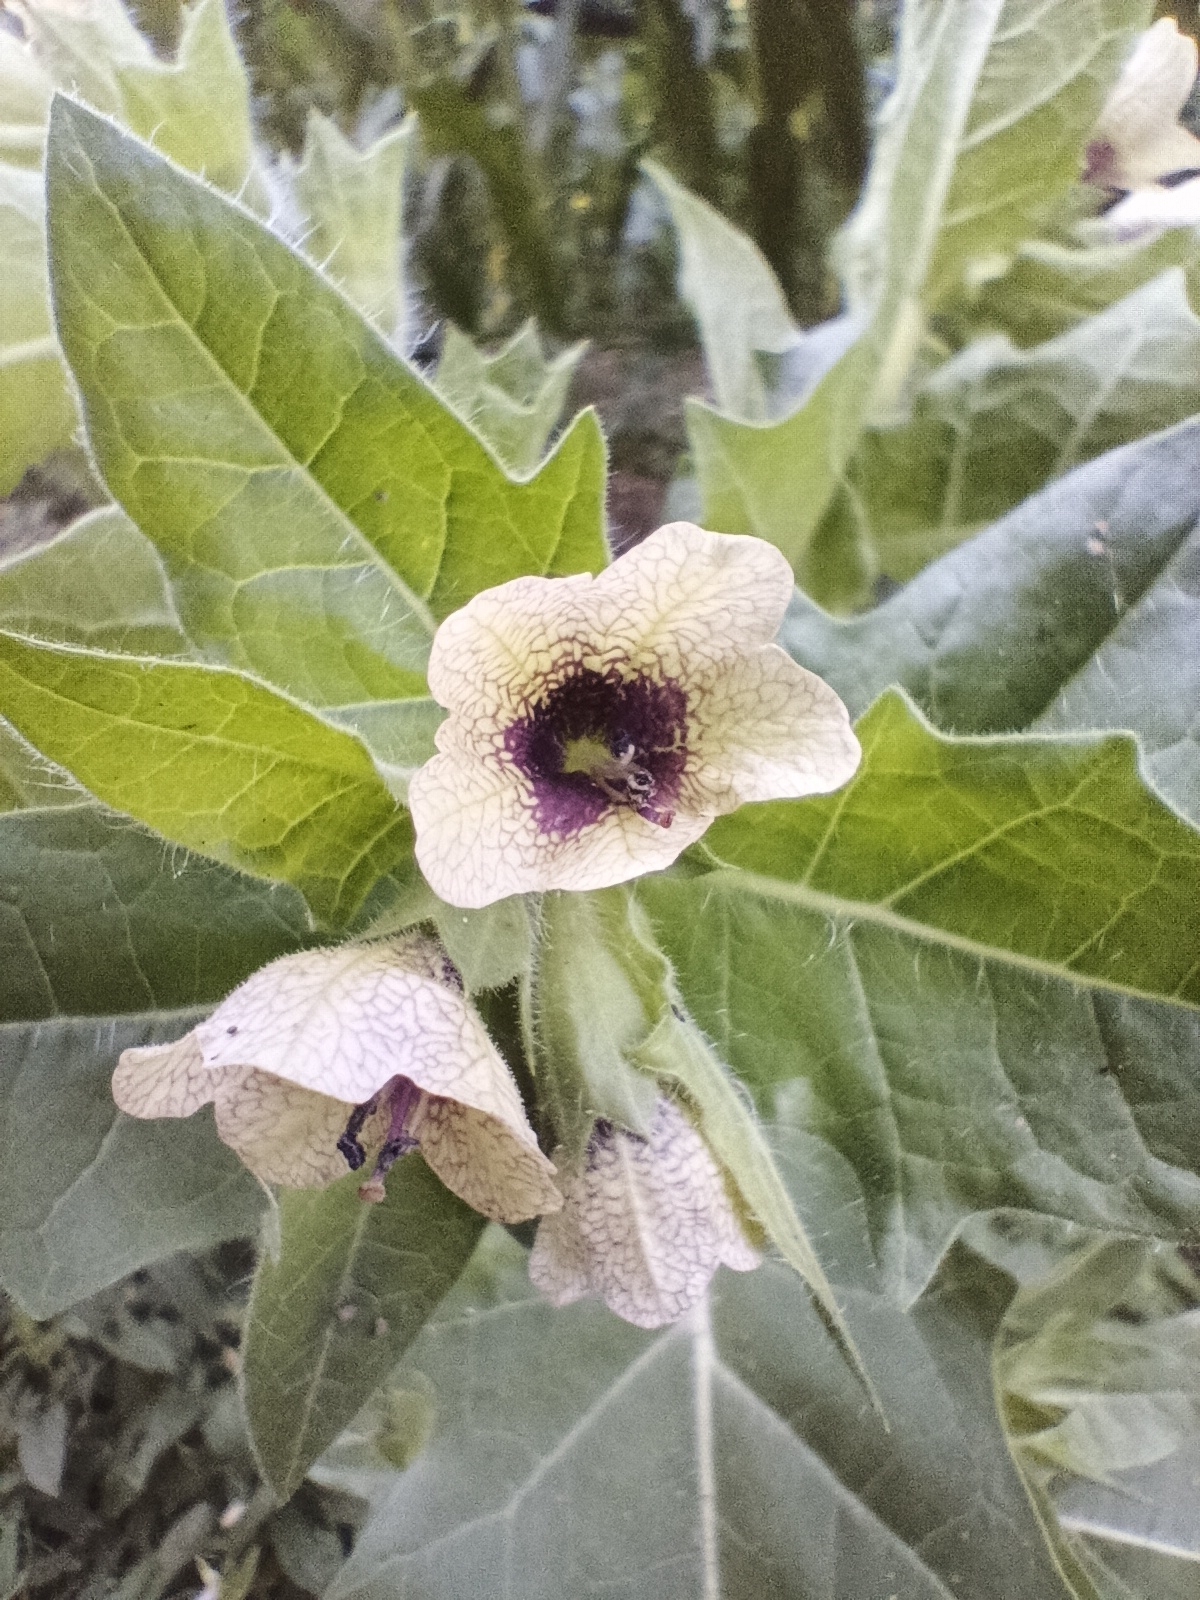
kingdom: Plantae
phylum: Tracheophyta
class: Magnoliopsida
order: Solanales
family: Solanaceae
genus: Hyoscyamus
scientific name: Hyoscyamus niger
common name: Henbane
